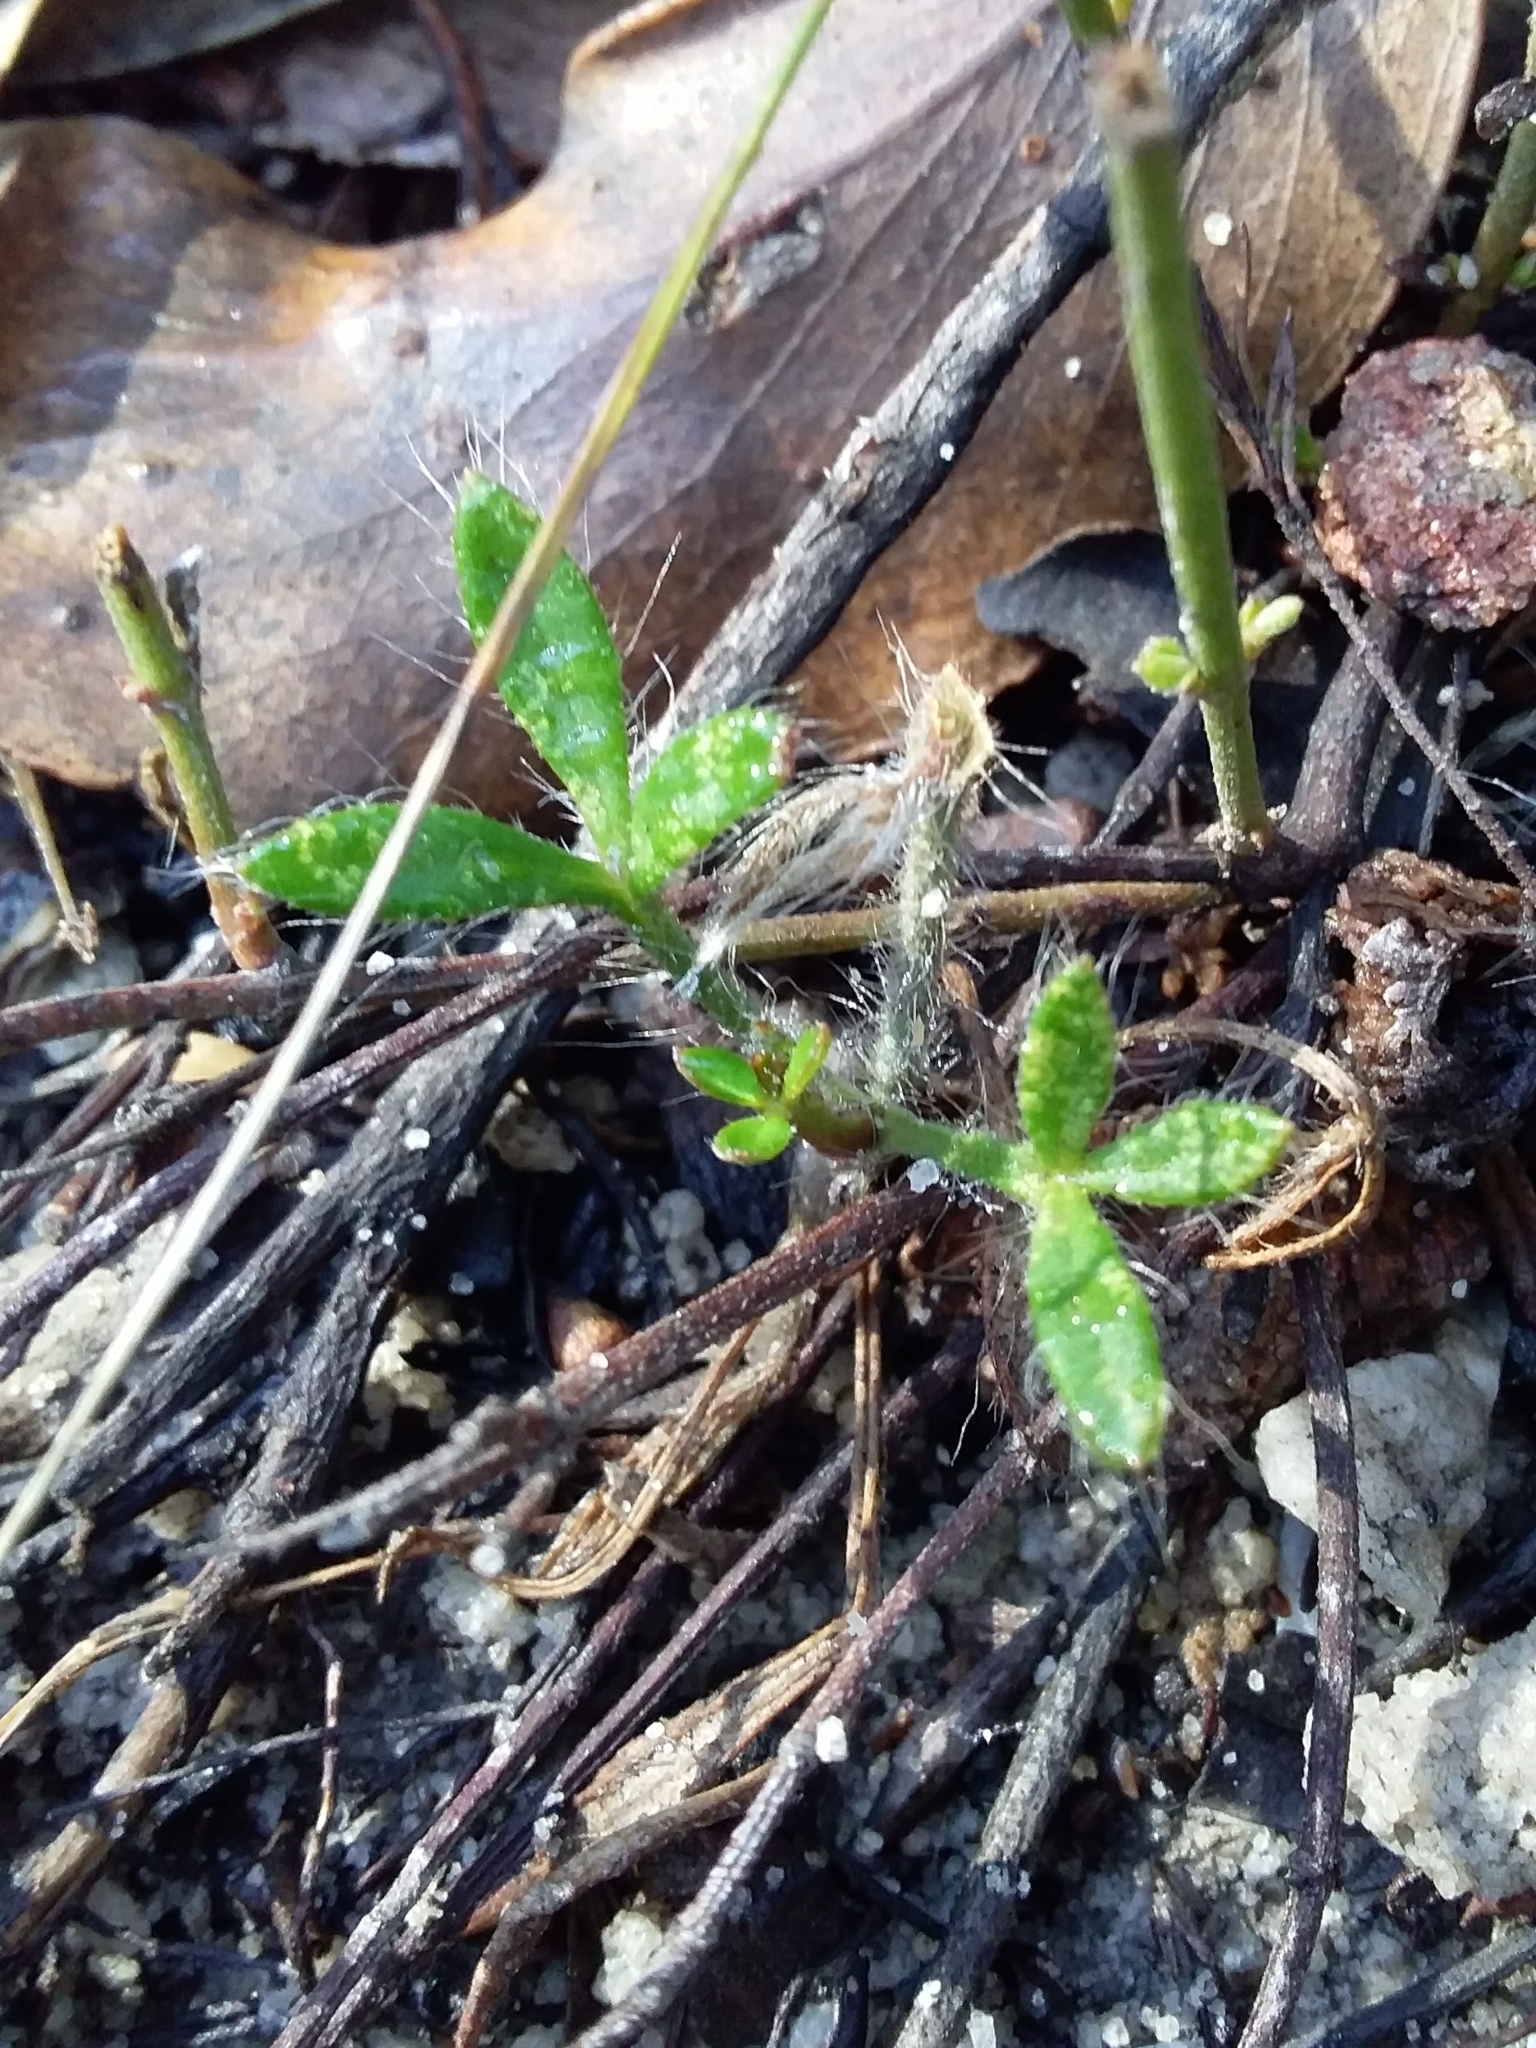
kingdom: Plantae
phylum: Tracheophyta
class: Magnoliopsida
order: Apiales
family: Apiaceae
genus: Xanthosia
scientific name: Xanthosia huegelii
